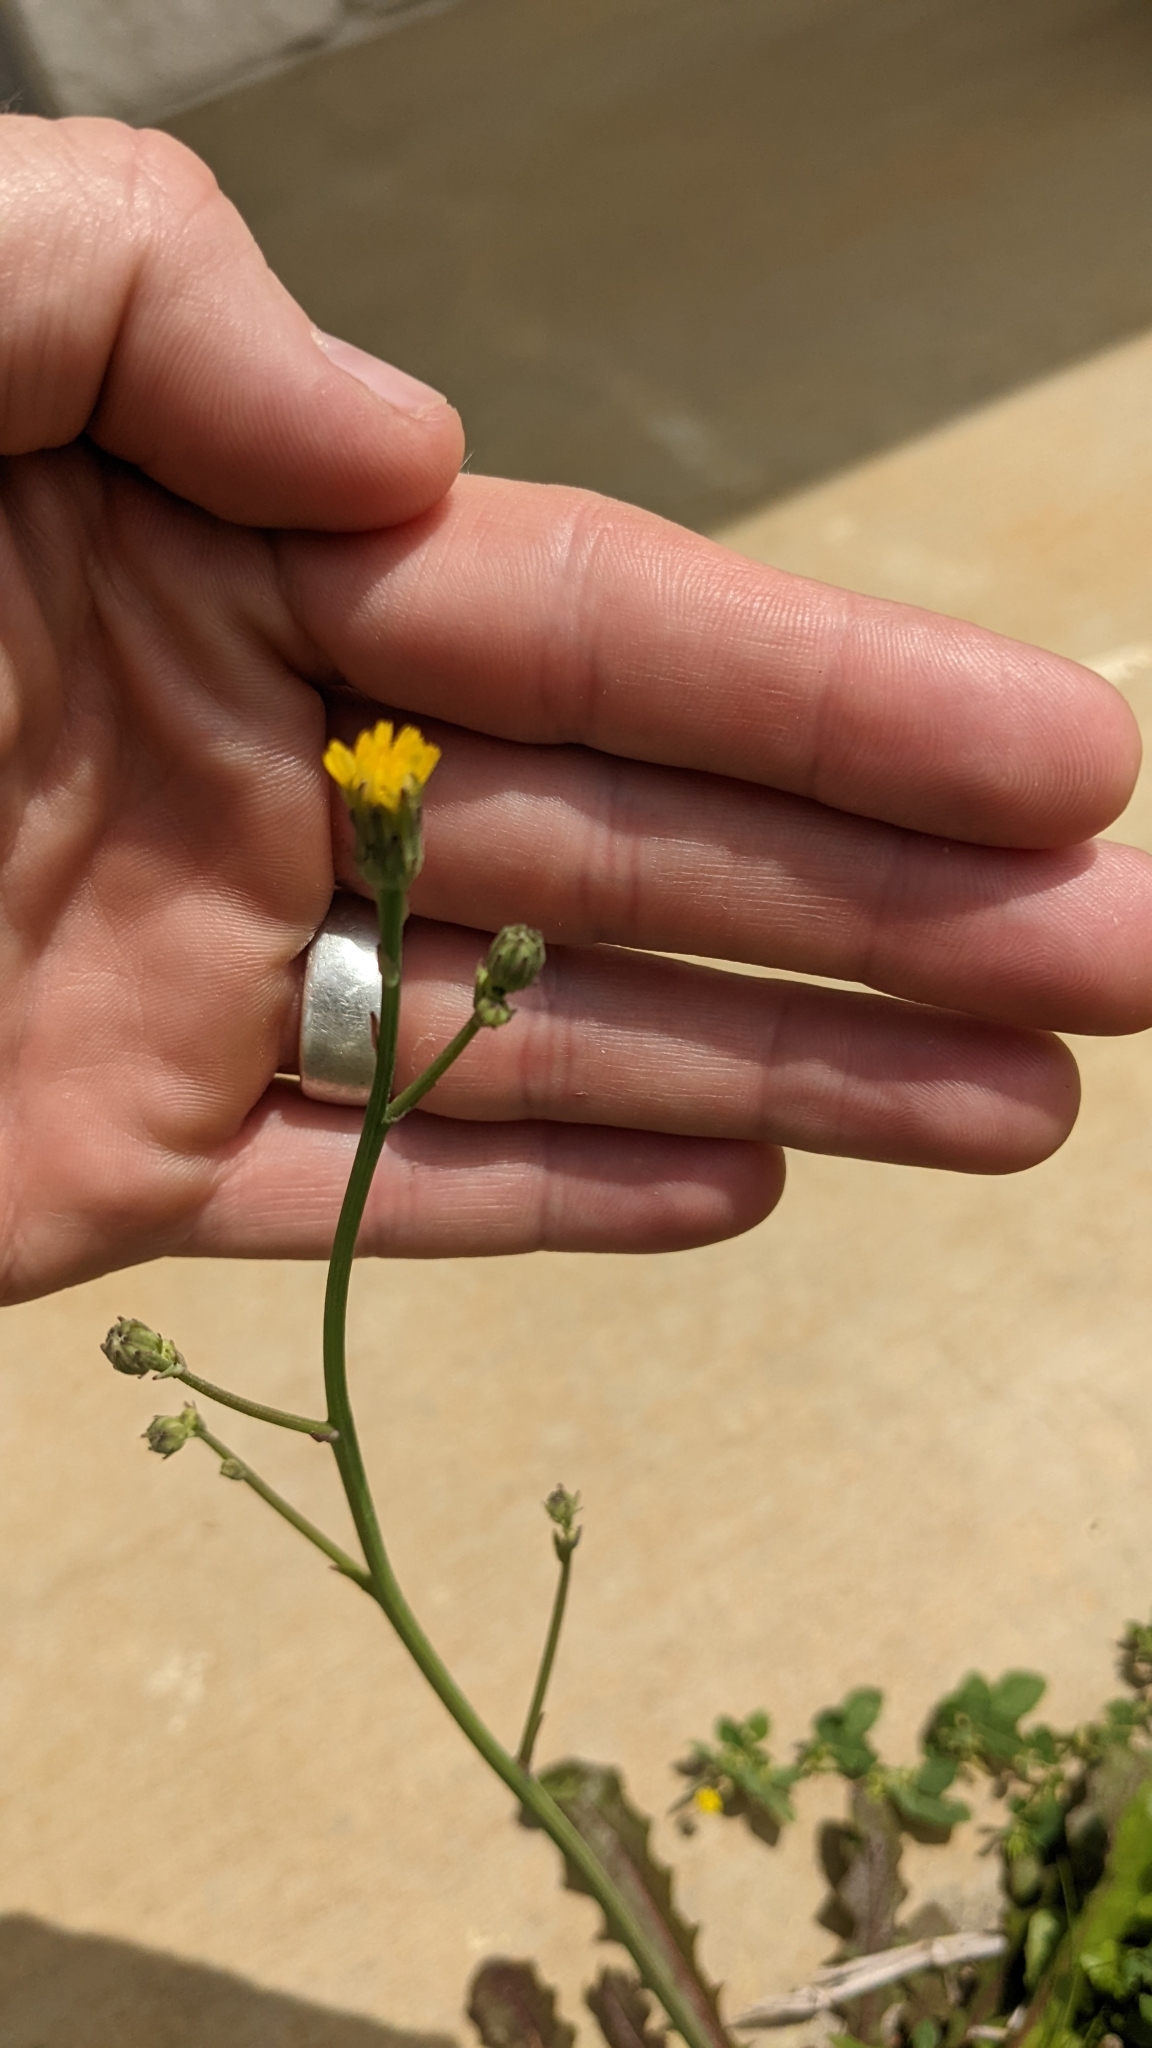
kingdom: Plantae
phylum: Tracheophyta
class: Magnoliopsida
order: Asterales
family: Asteraceae
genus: Hypochaeris
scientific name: Hypochaeris glabra
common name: Smooth catsear
